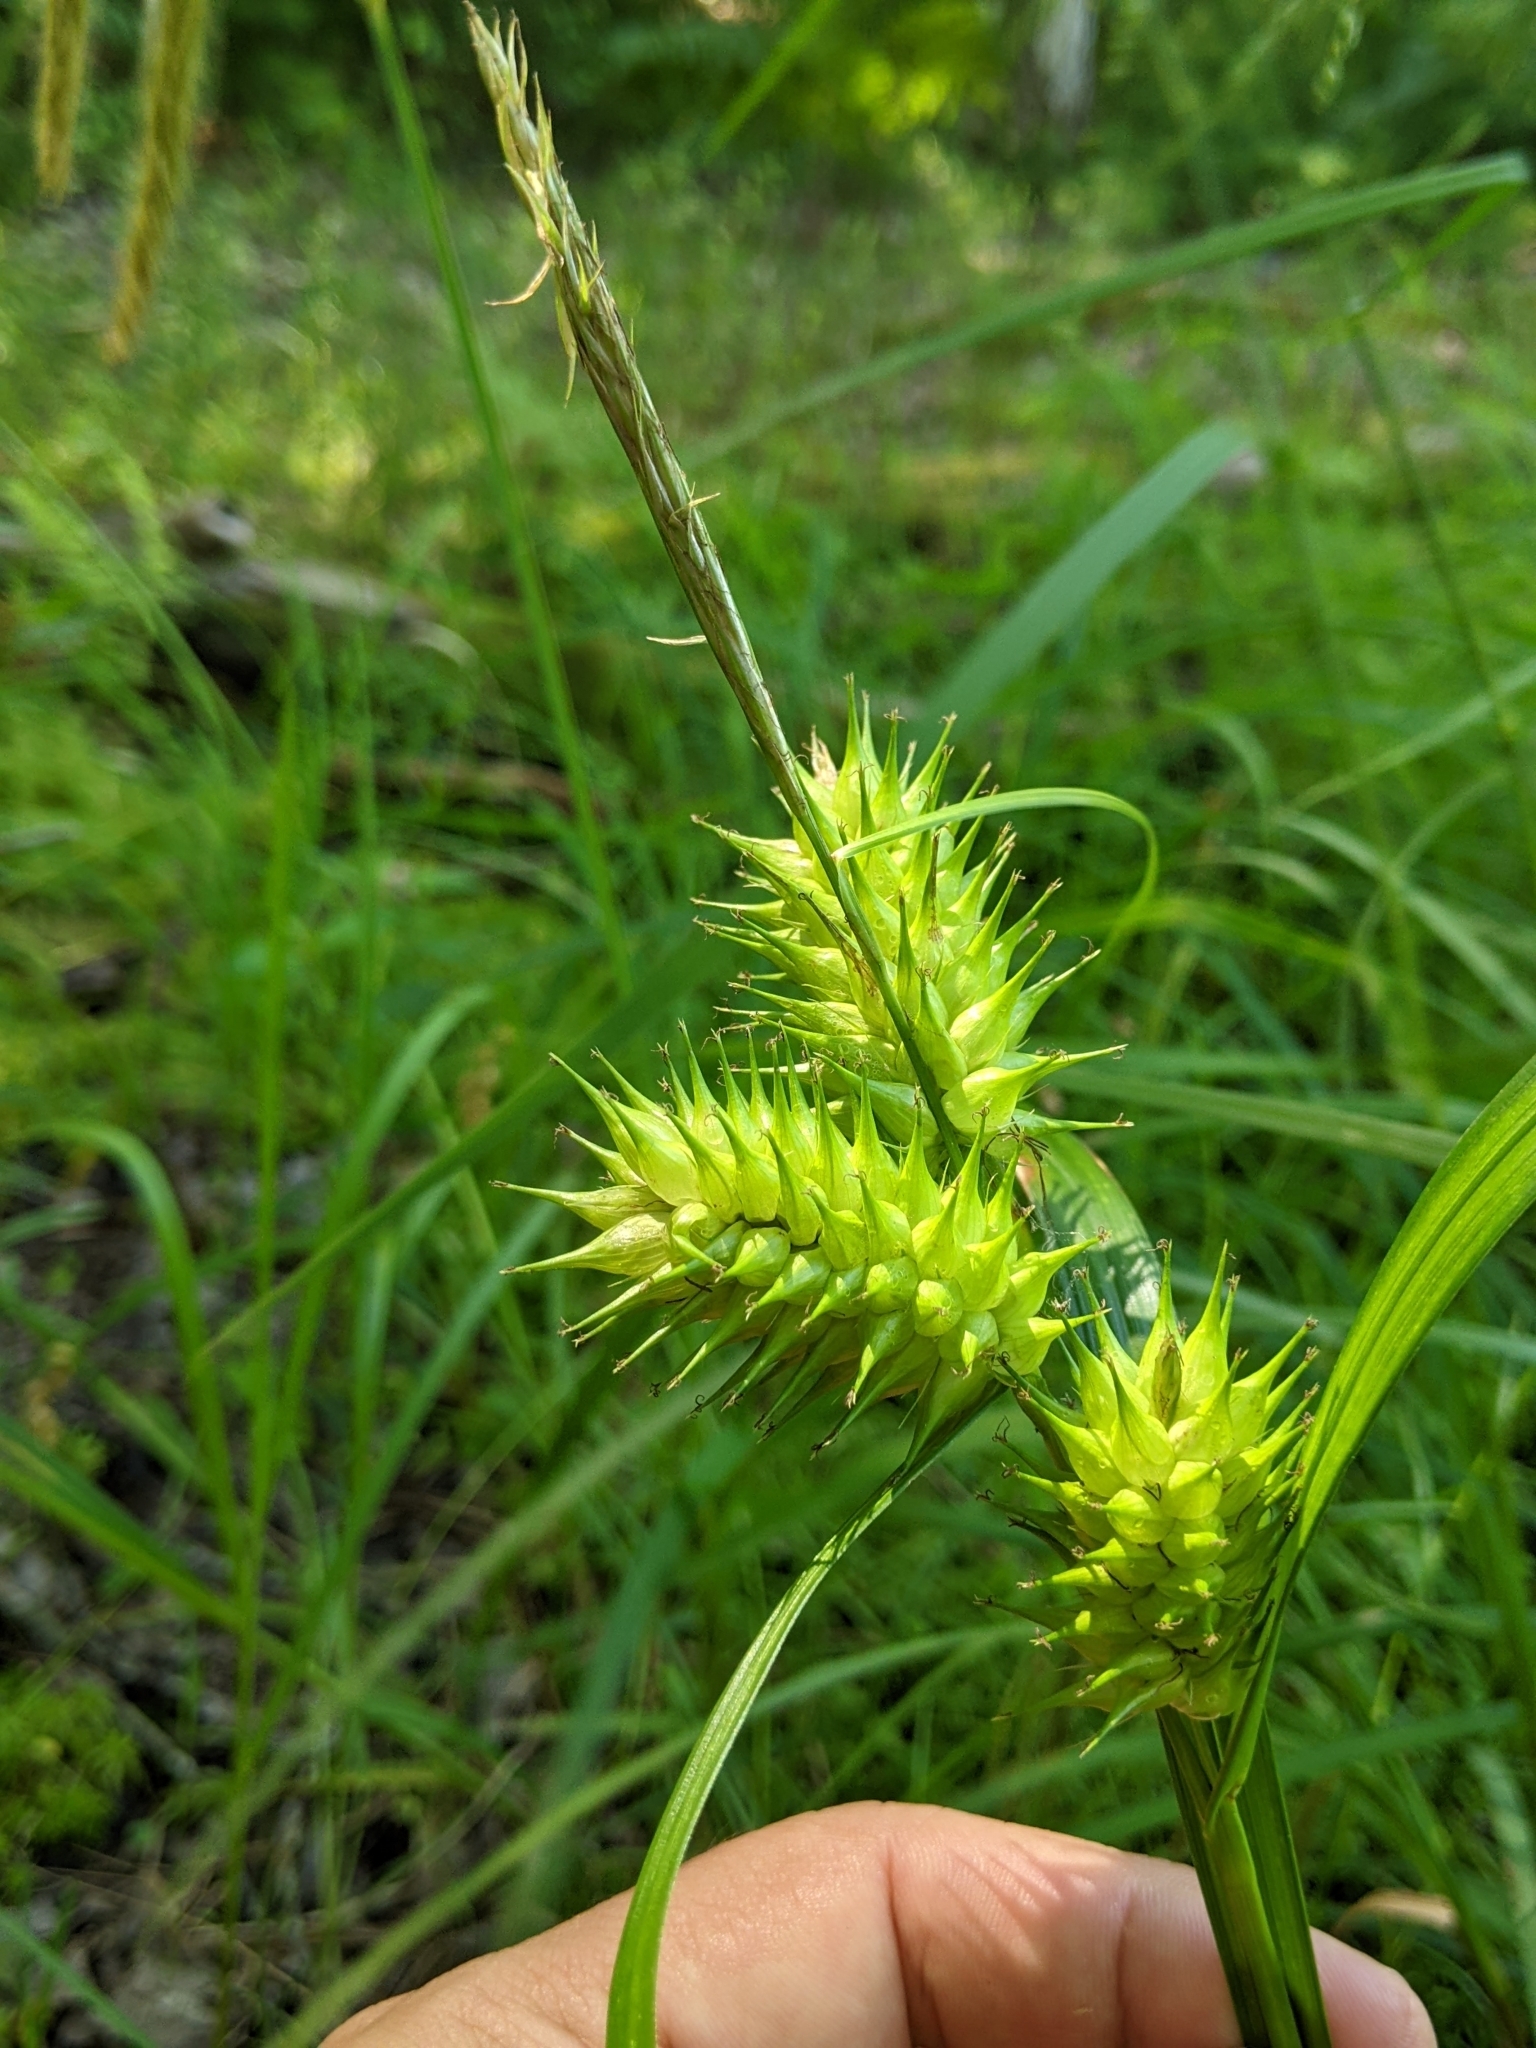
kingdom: Plantae
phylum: Tracheophyta
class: Liliopsida
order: Poales
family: Cyperaceae
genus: Carex
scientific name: Carex lupulina
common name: Hop sedge
